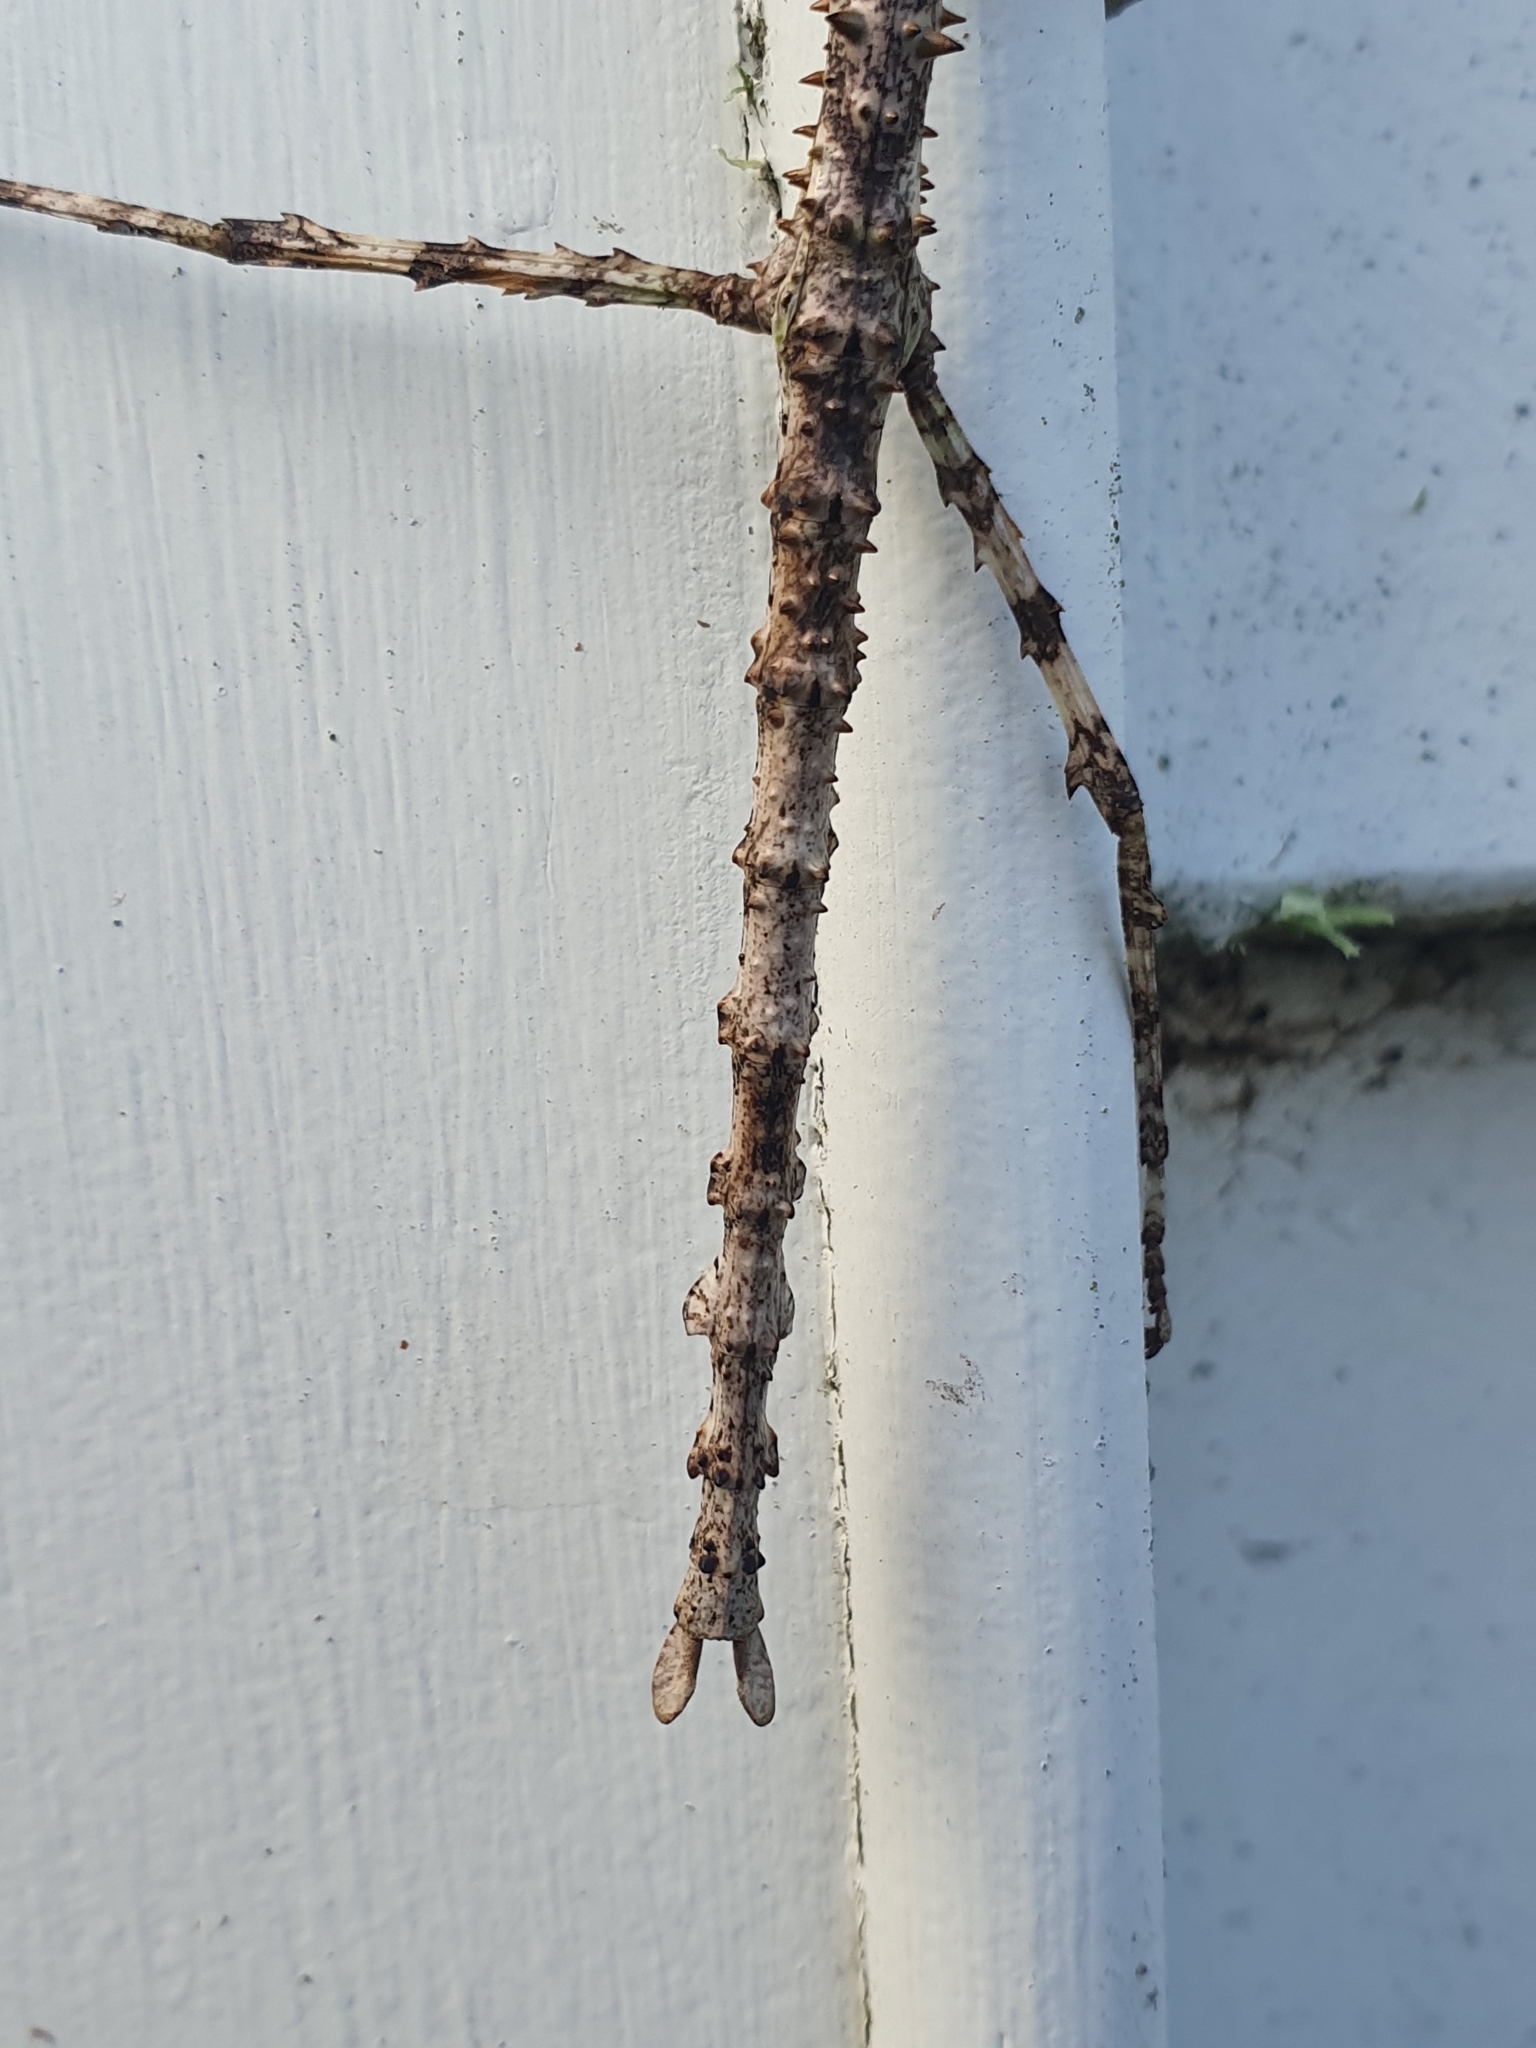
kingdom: Animalia
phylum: Arthropoda
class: Insecta
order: Phasmida
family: Phasmatidae
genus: Acanthoxyla
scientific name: Acanthoxyla prasina
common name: Black-spined stick insect
